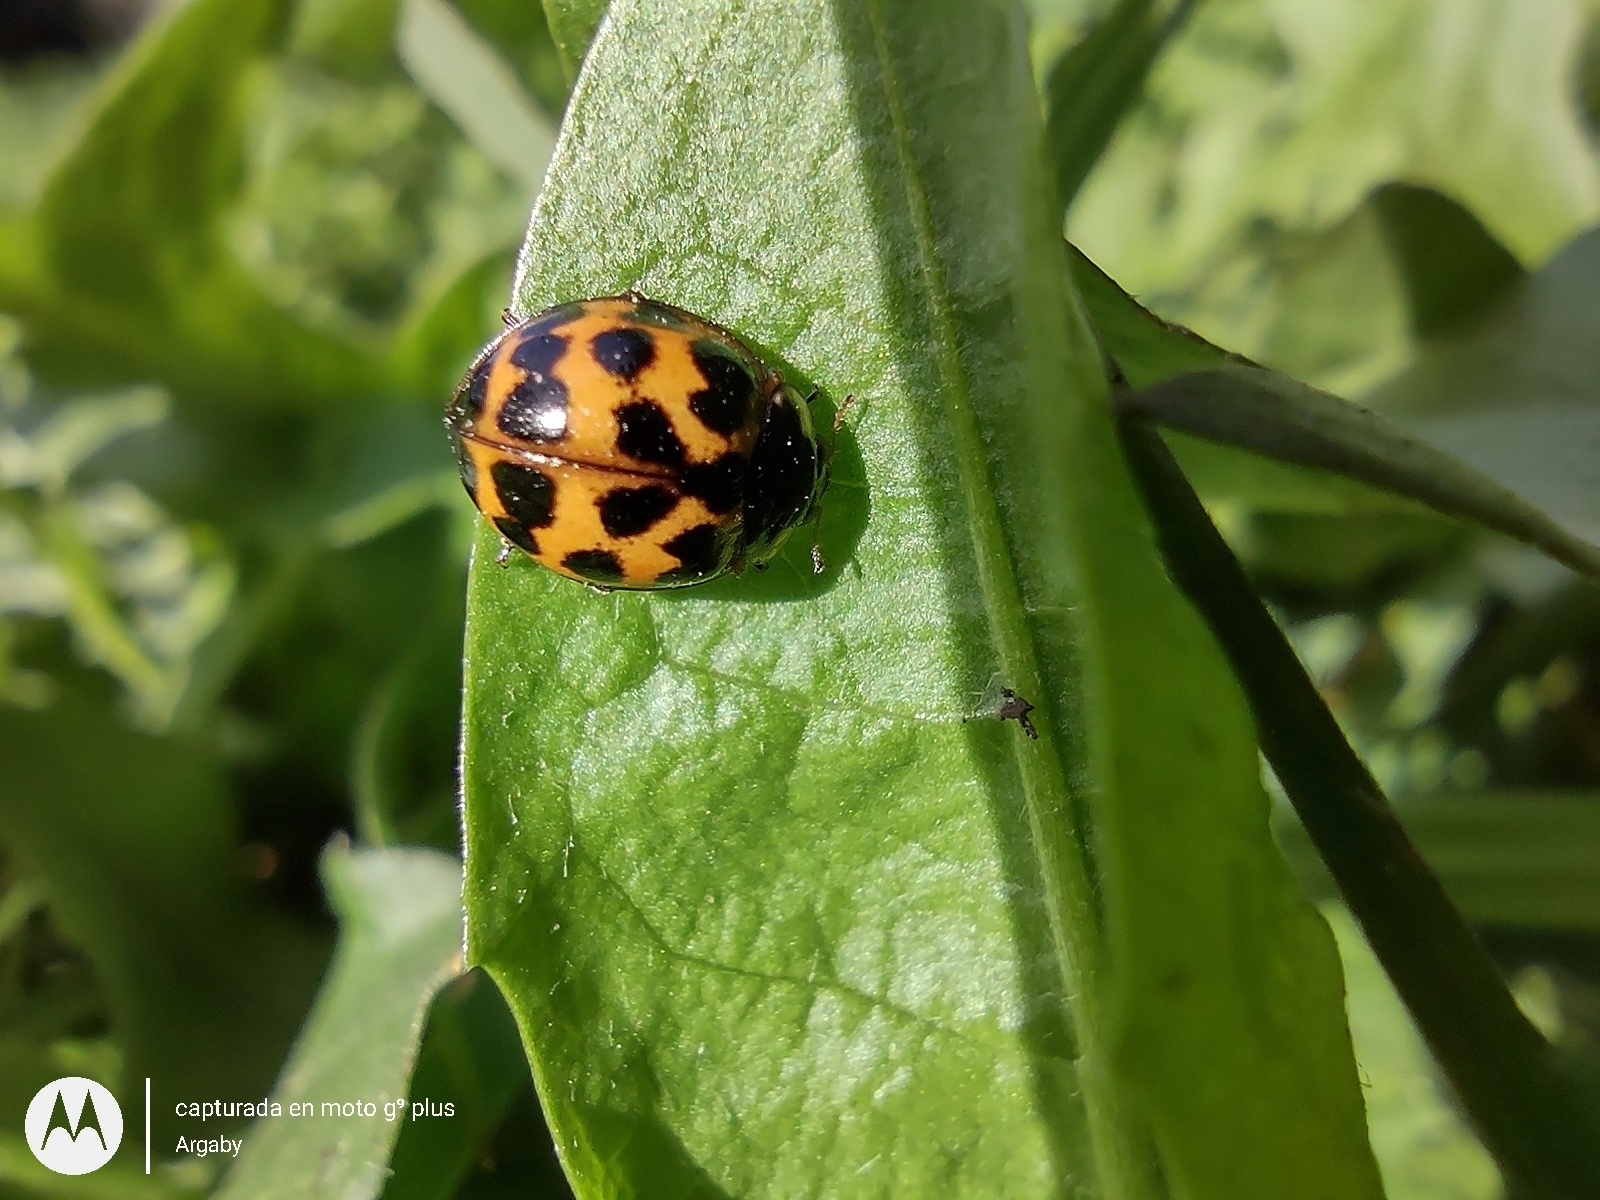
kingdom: Animalia
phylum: Arthropoda
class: Insecta
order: Coleoptera
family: Coccinellidae
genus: Harmonia
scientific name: Harmonia axyridis
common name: Harlequin ladybird
